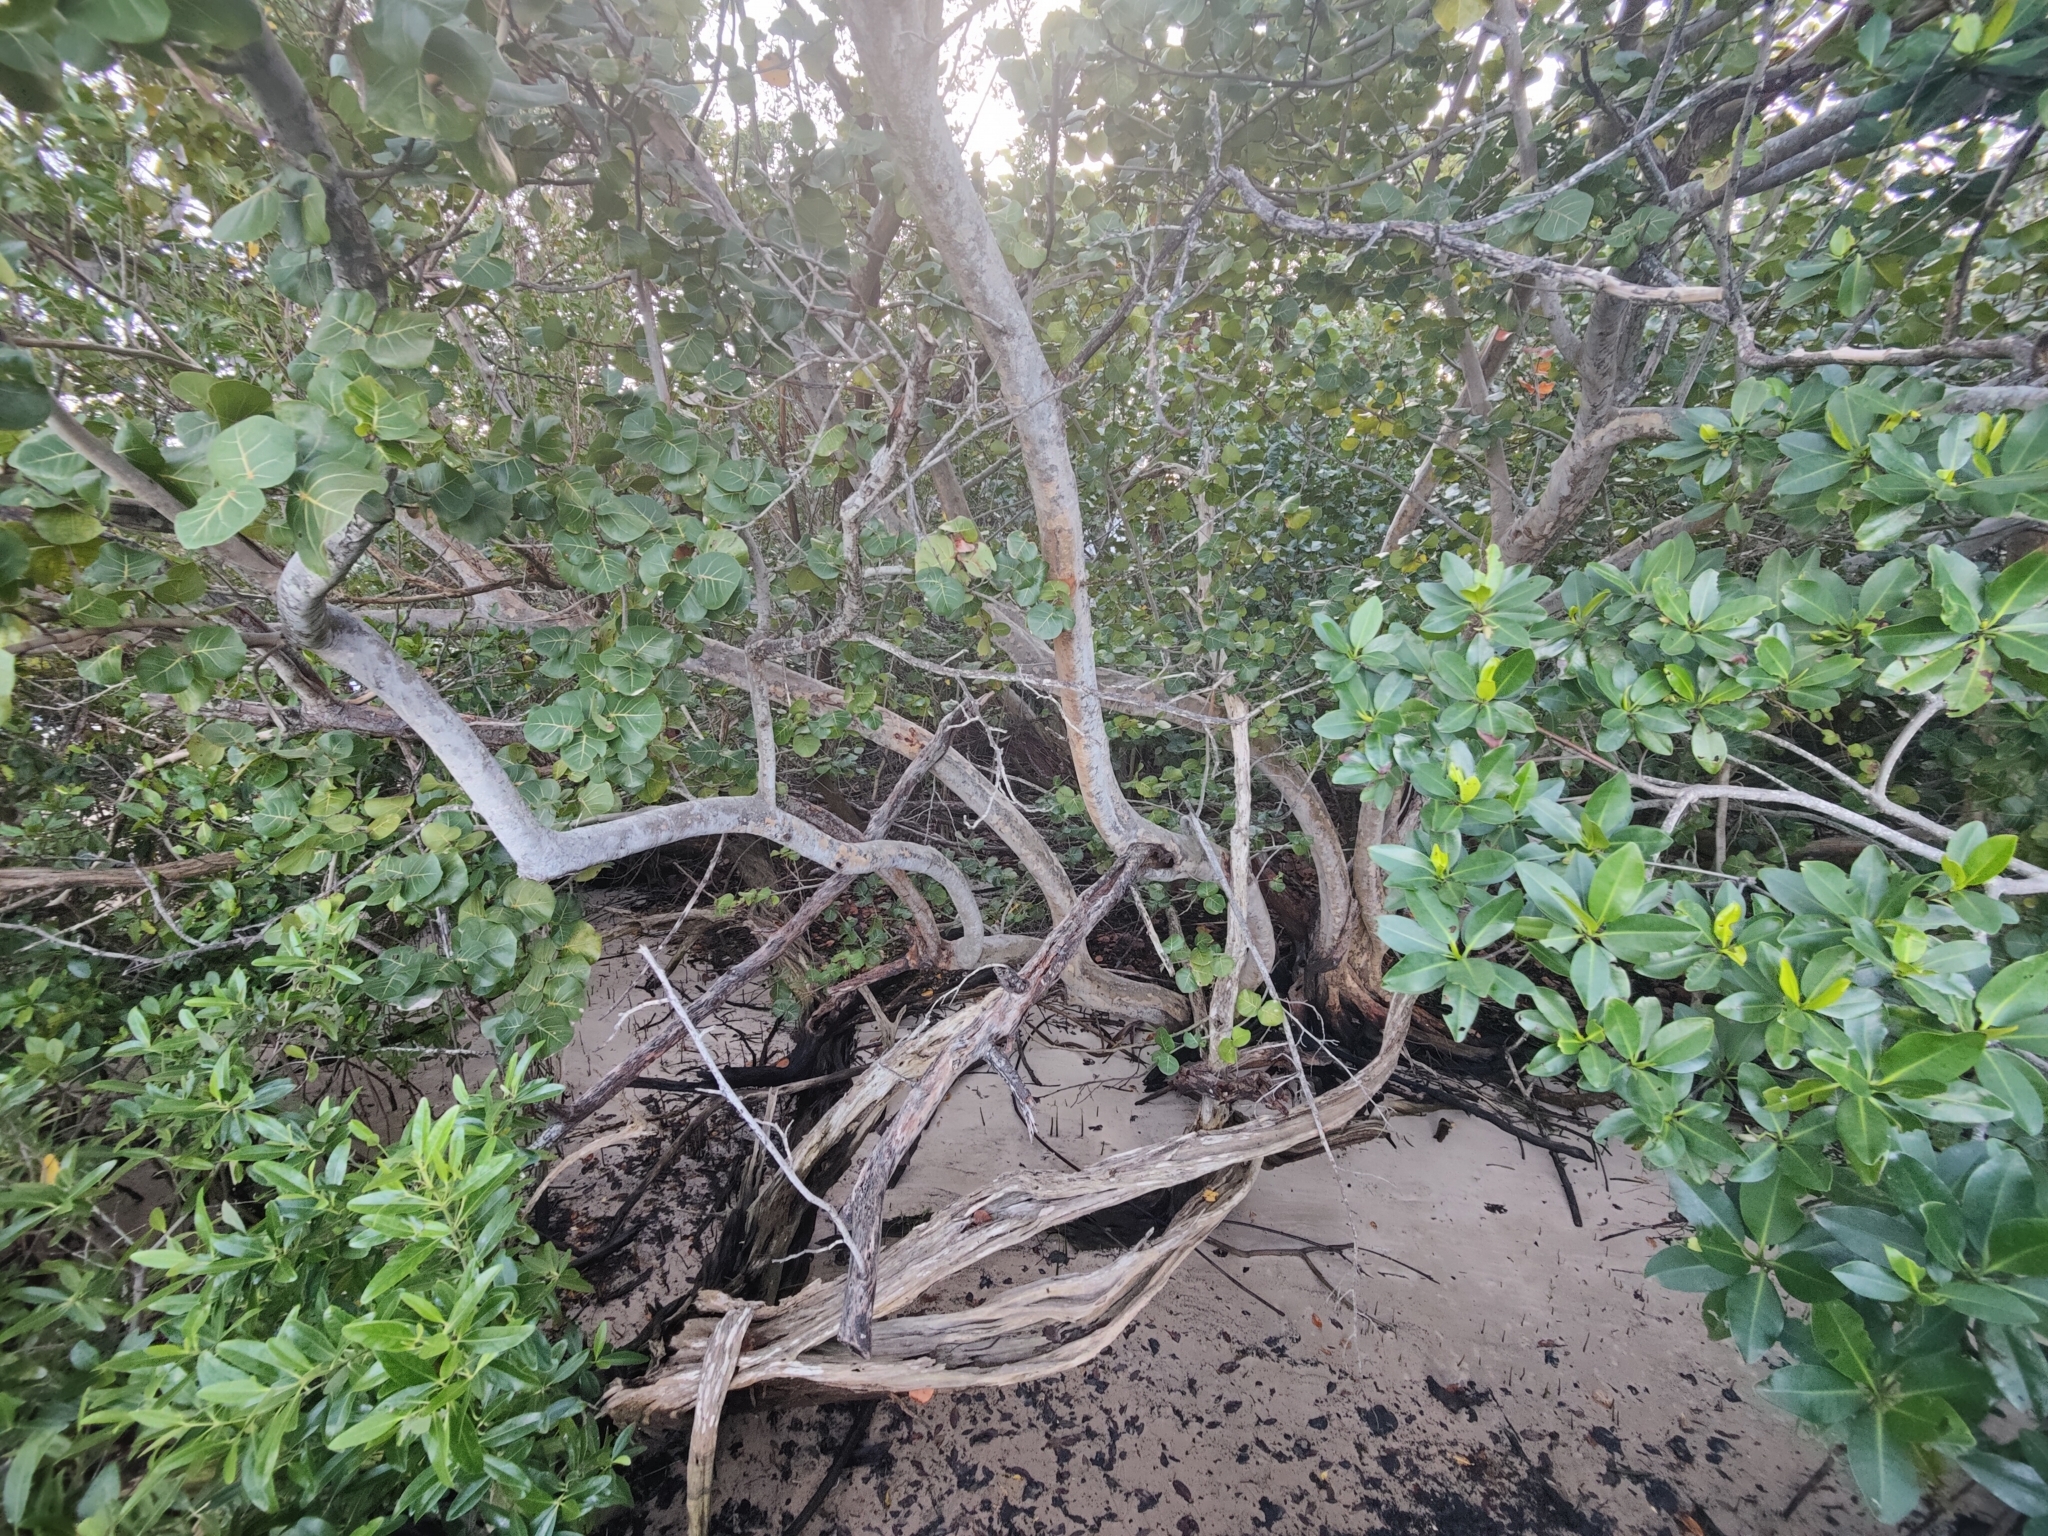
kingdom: Plantae
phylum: Tracheophyta
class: Magnoliopsida
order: Malpighiales
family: Rhizophoraceae
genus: Rhizophora
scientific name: Rhizophora mangle
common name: Red mangrove
